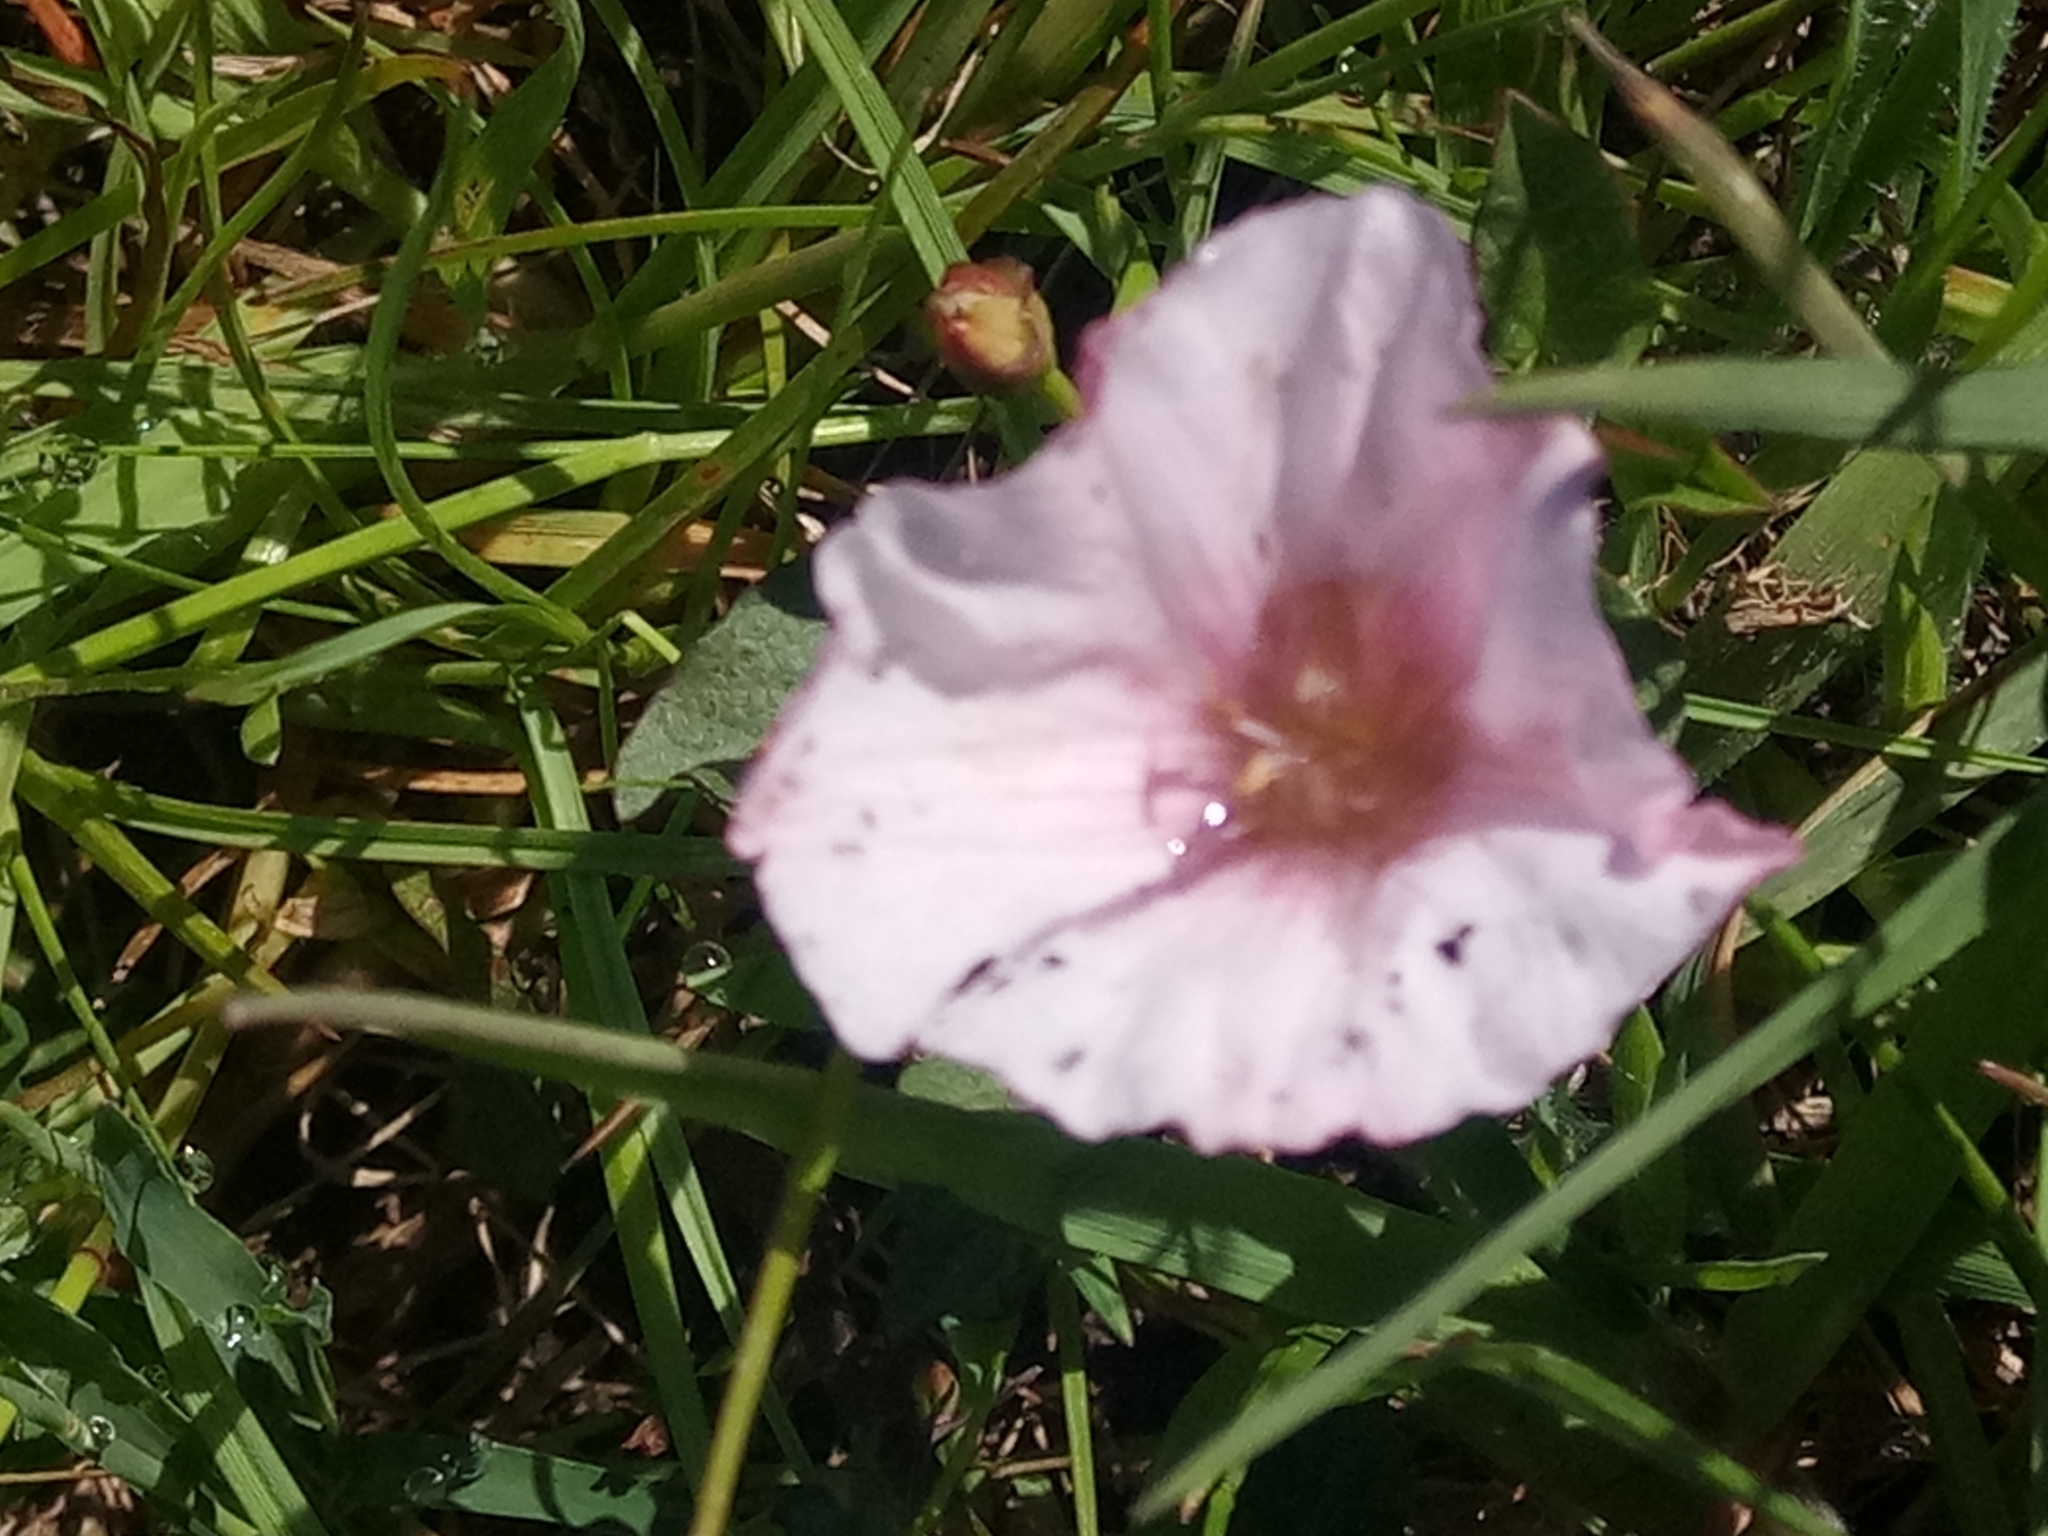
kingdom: Plantae
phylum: Tracheophyta
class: Magnoliopsida
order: Solanales
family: Convolvulaceae
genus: Convolvulus
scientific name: Convolvulus durandoi
